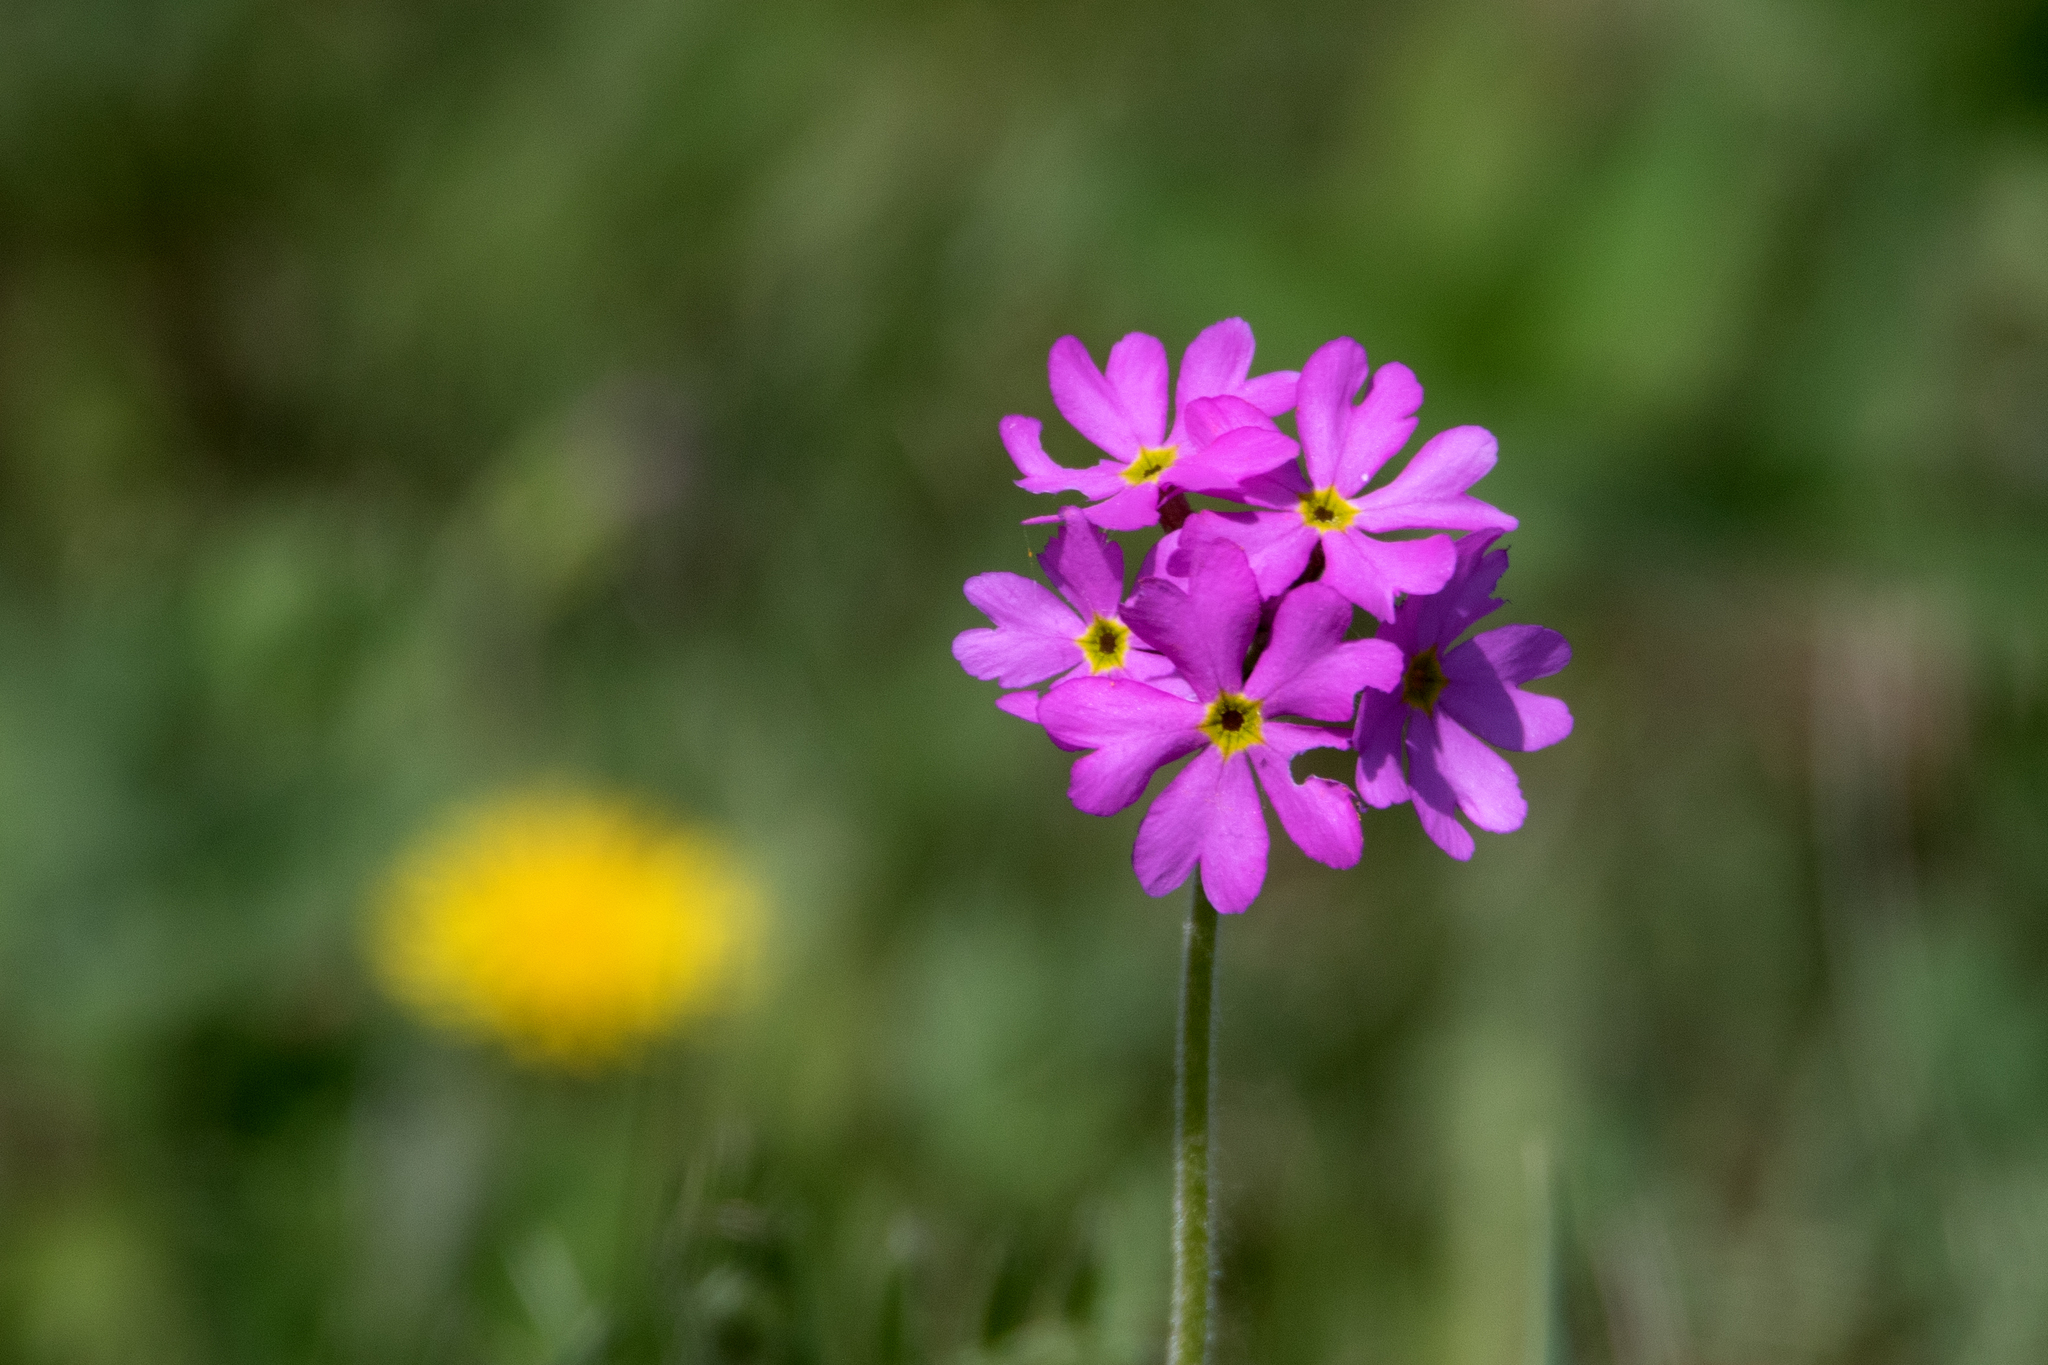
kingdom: Plantae
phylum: Tracheophyta
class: Magnoliopsida
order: Ericales
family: Primulaceae
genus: Primula
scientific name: Primula cortusoides
